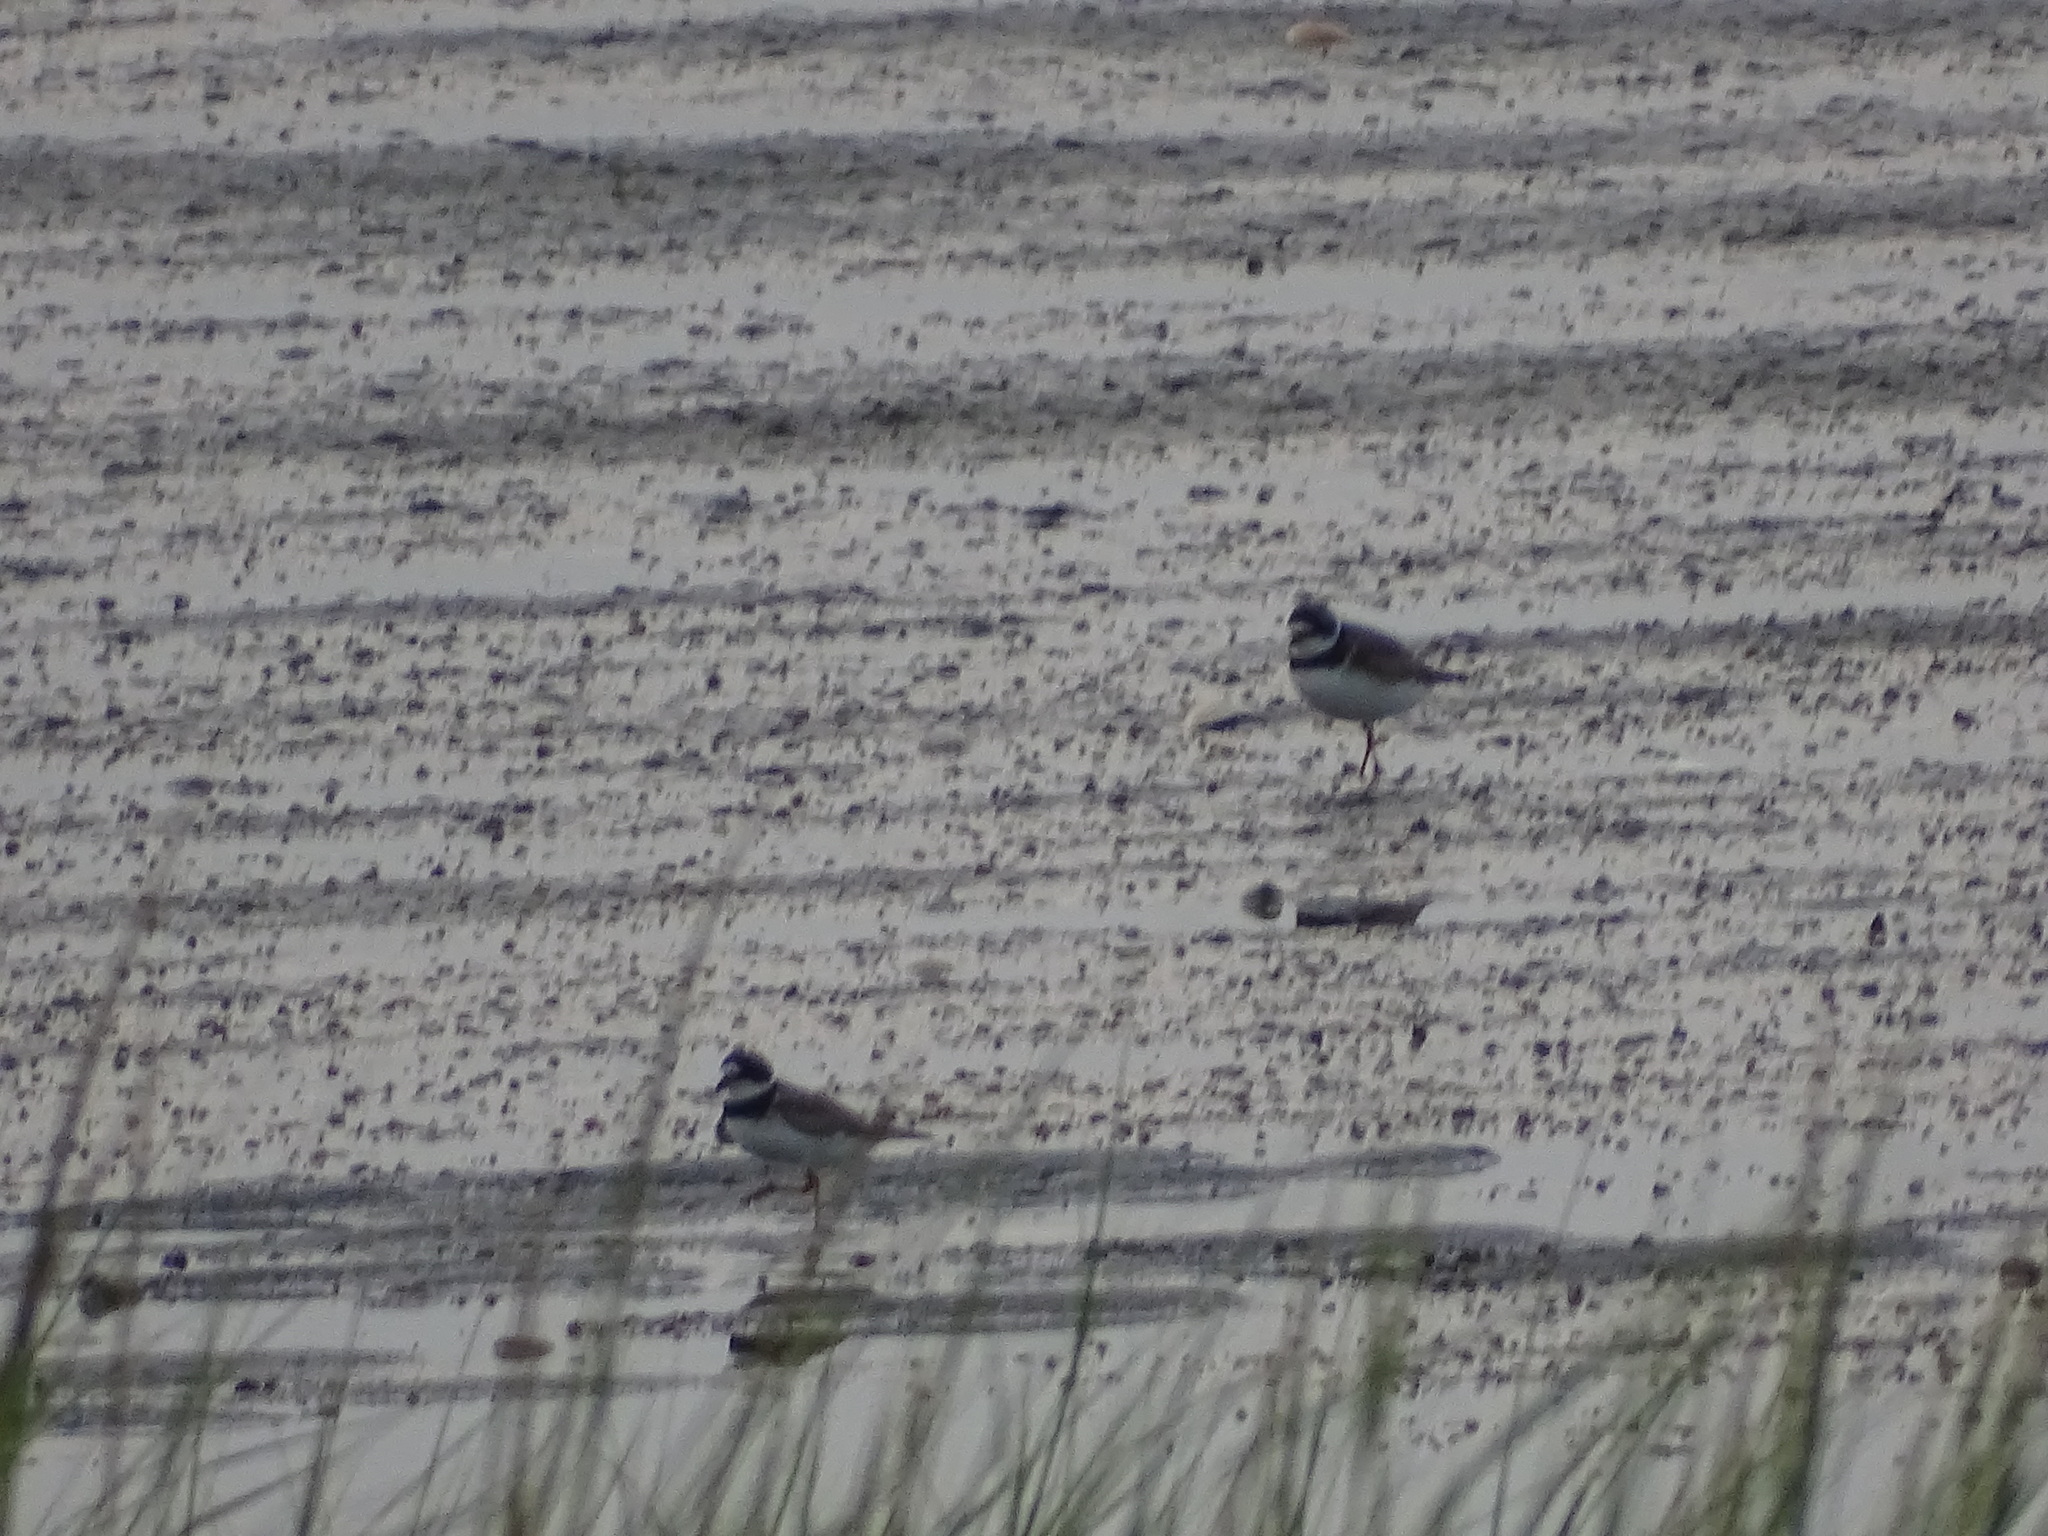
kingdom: Animalia
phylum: Chordata
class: Aves
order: Charadriiformes
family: Charadriidae
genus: Charadrius
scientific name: Charadrius semipalmatus
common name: Semipalmated plover
